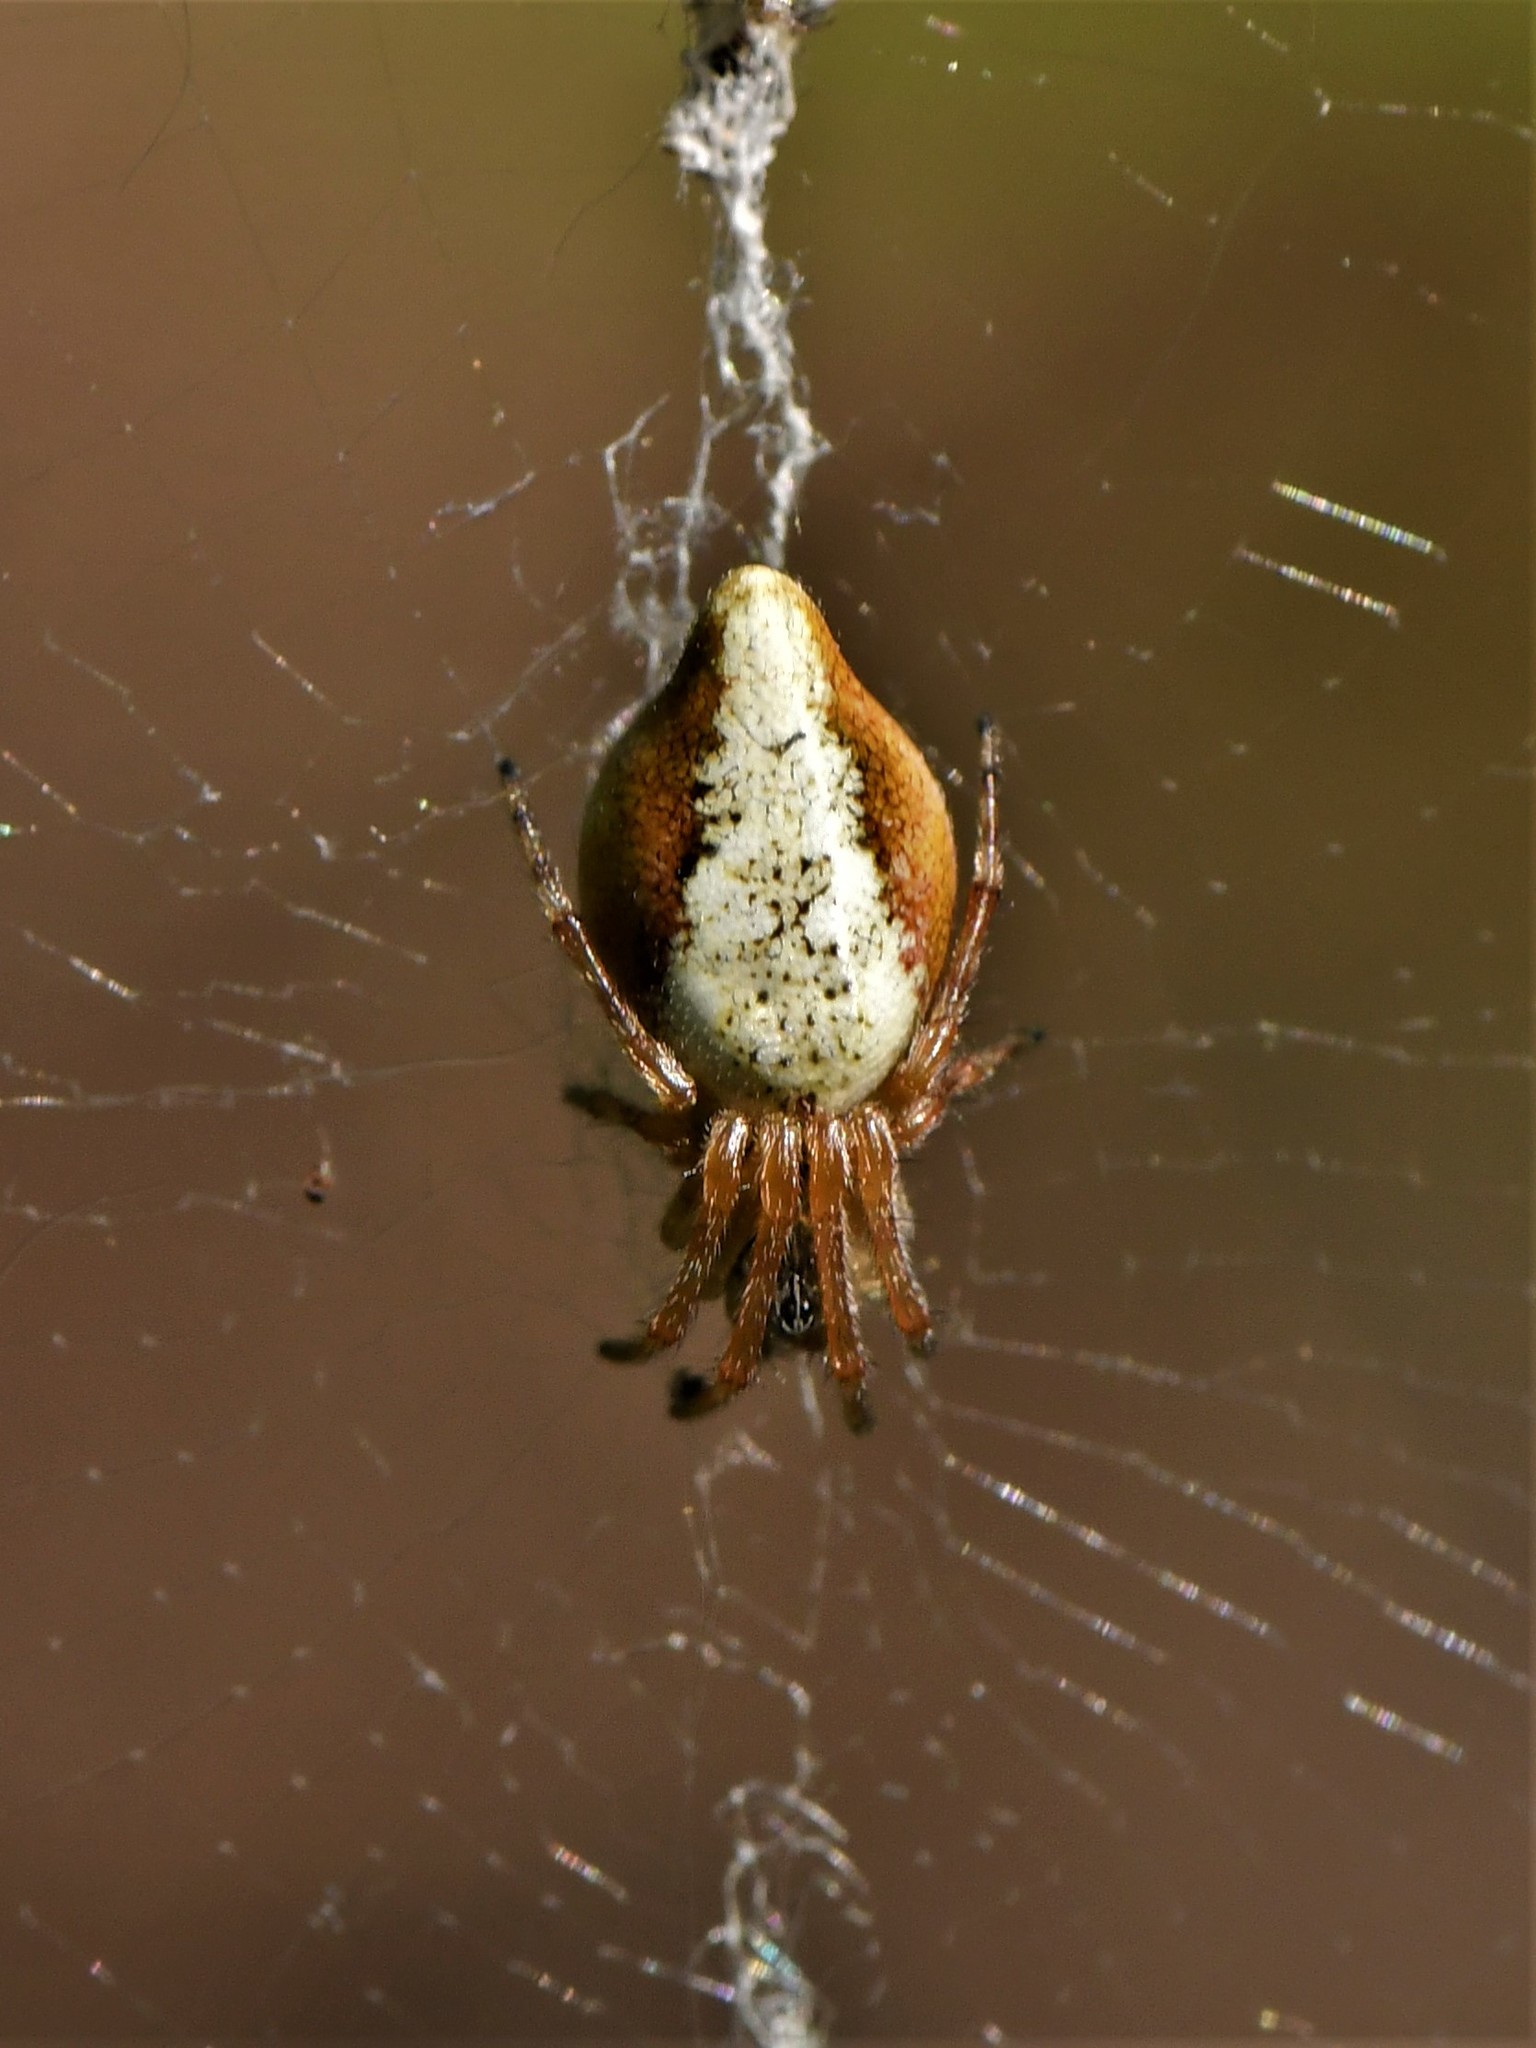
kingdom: Animalia
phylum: Arthropoda
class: Arachnida
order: Araneae
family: Araneidae
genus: Cyclosa
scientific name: Cyclosa conica
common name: Conical trashline orbweaver
